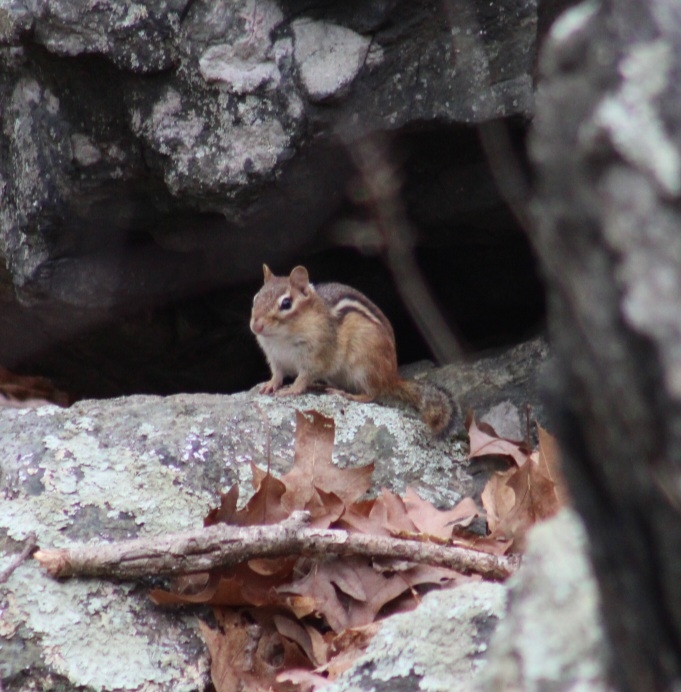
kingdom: Animalia
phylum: Chordata
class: Mammalia
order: Rodentia
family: Sciuridae
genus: Tamias
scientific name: Tamias striatus
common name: Eastern chipmunk
